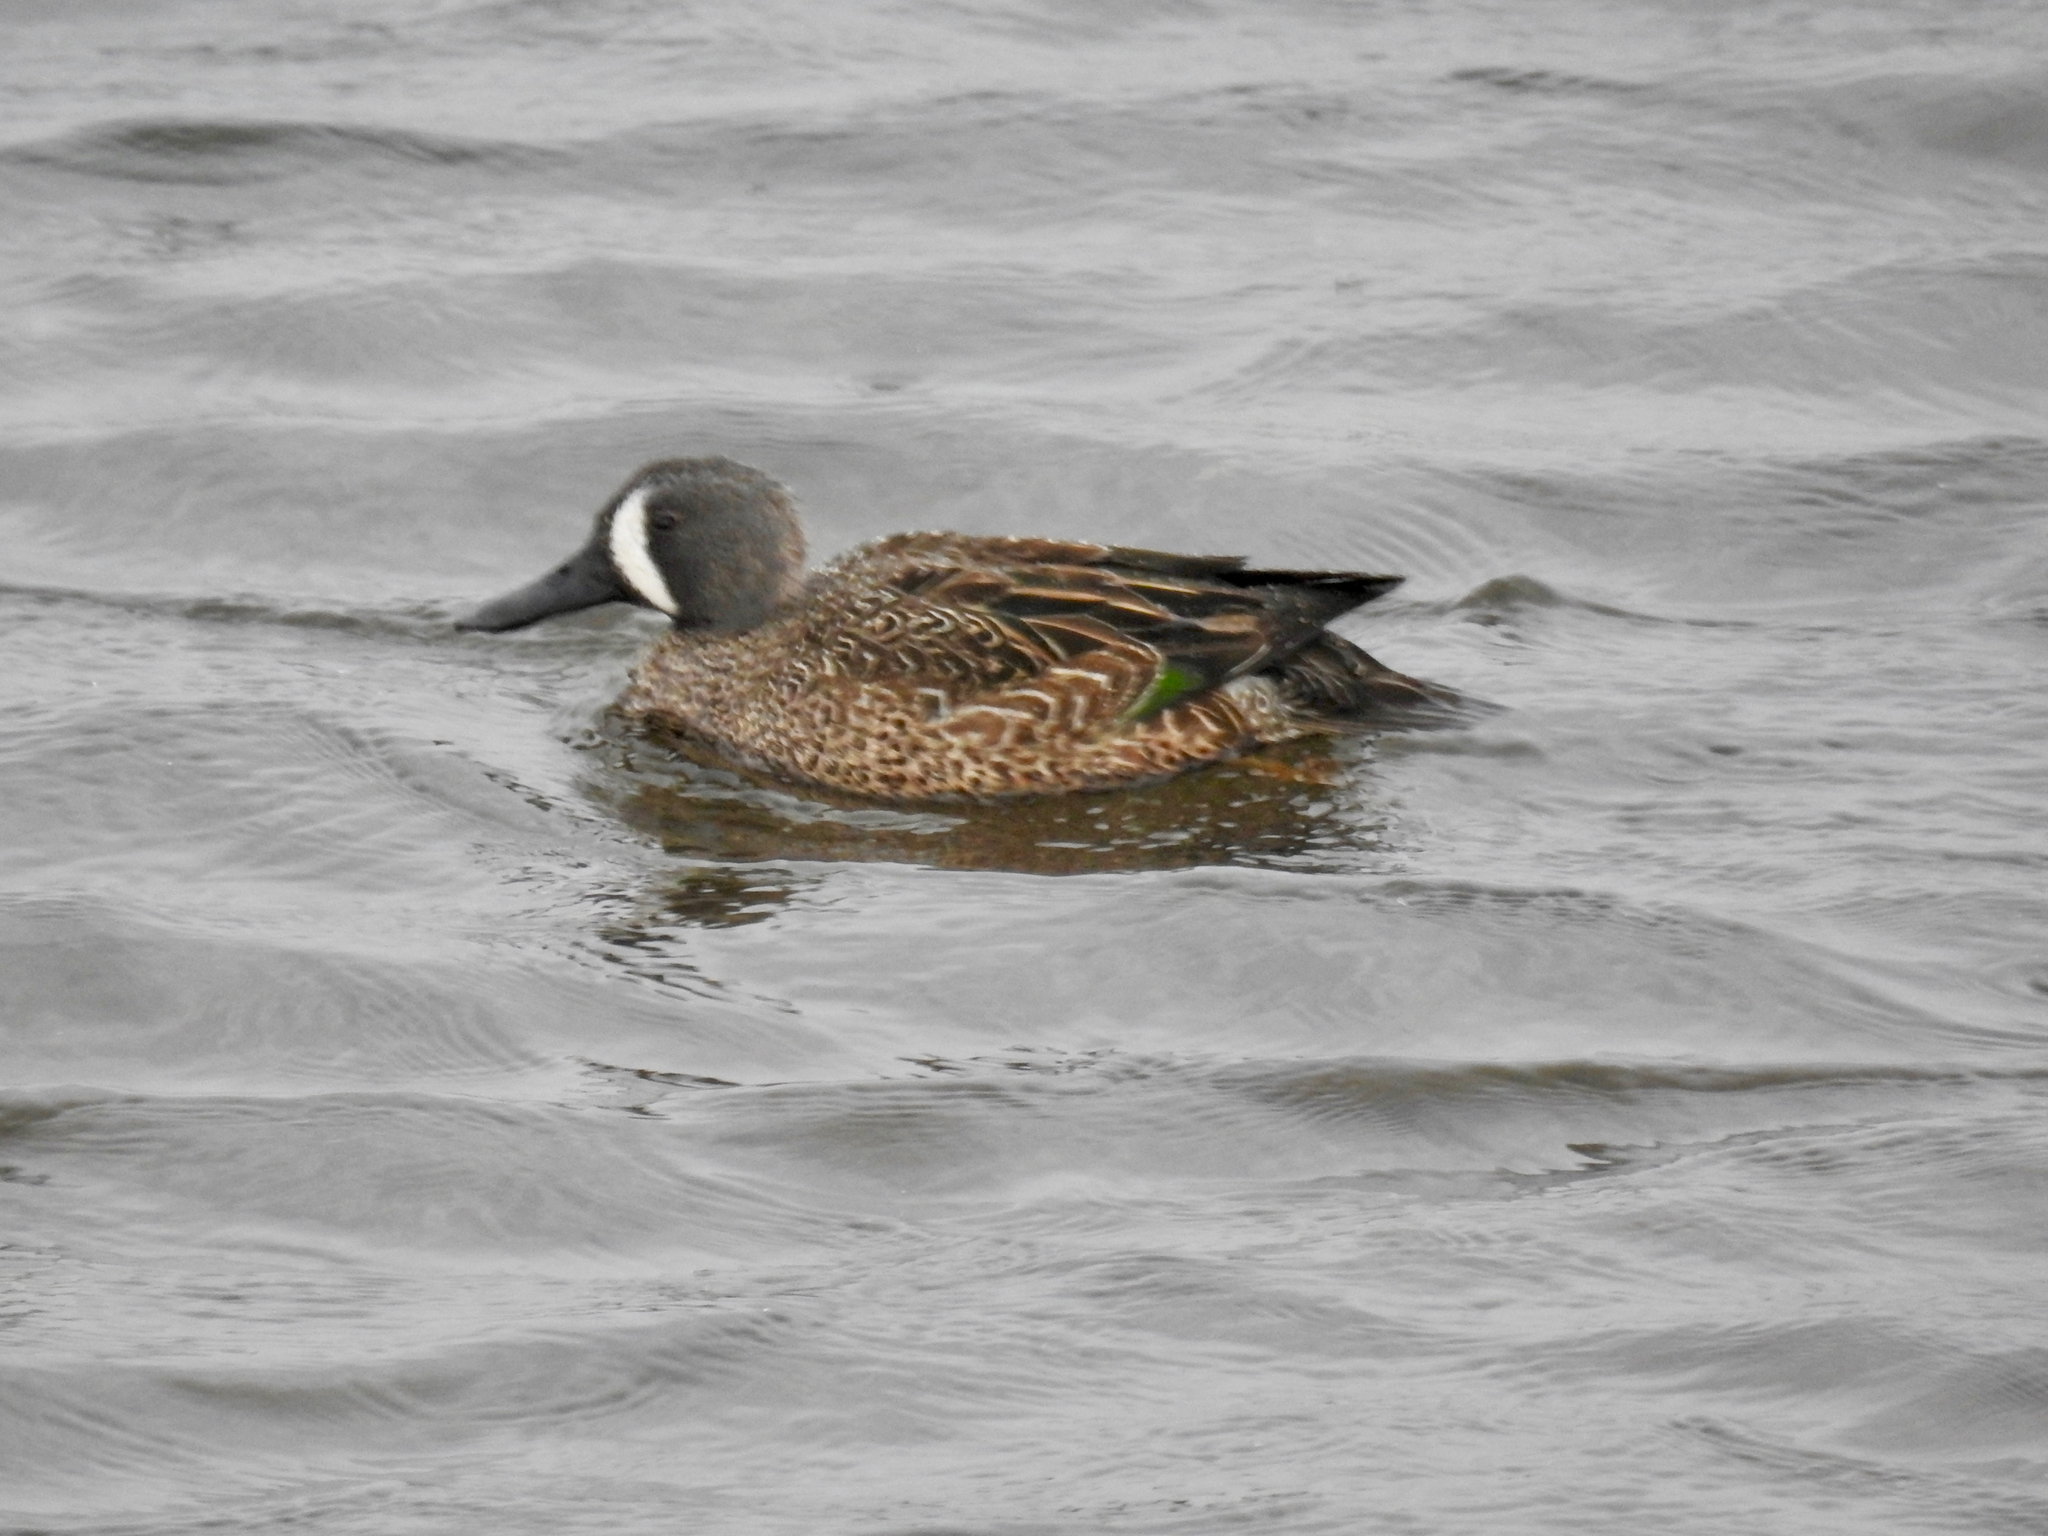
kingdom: Animalia
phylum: Chordata
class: Aves
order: Anseriformes
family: Anatidae
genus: Spatula
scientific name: Spatula discors
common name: Blue-winged teal
